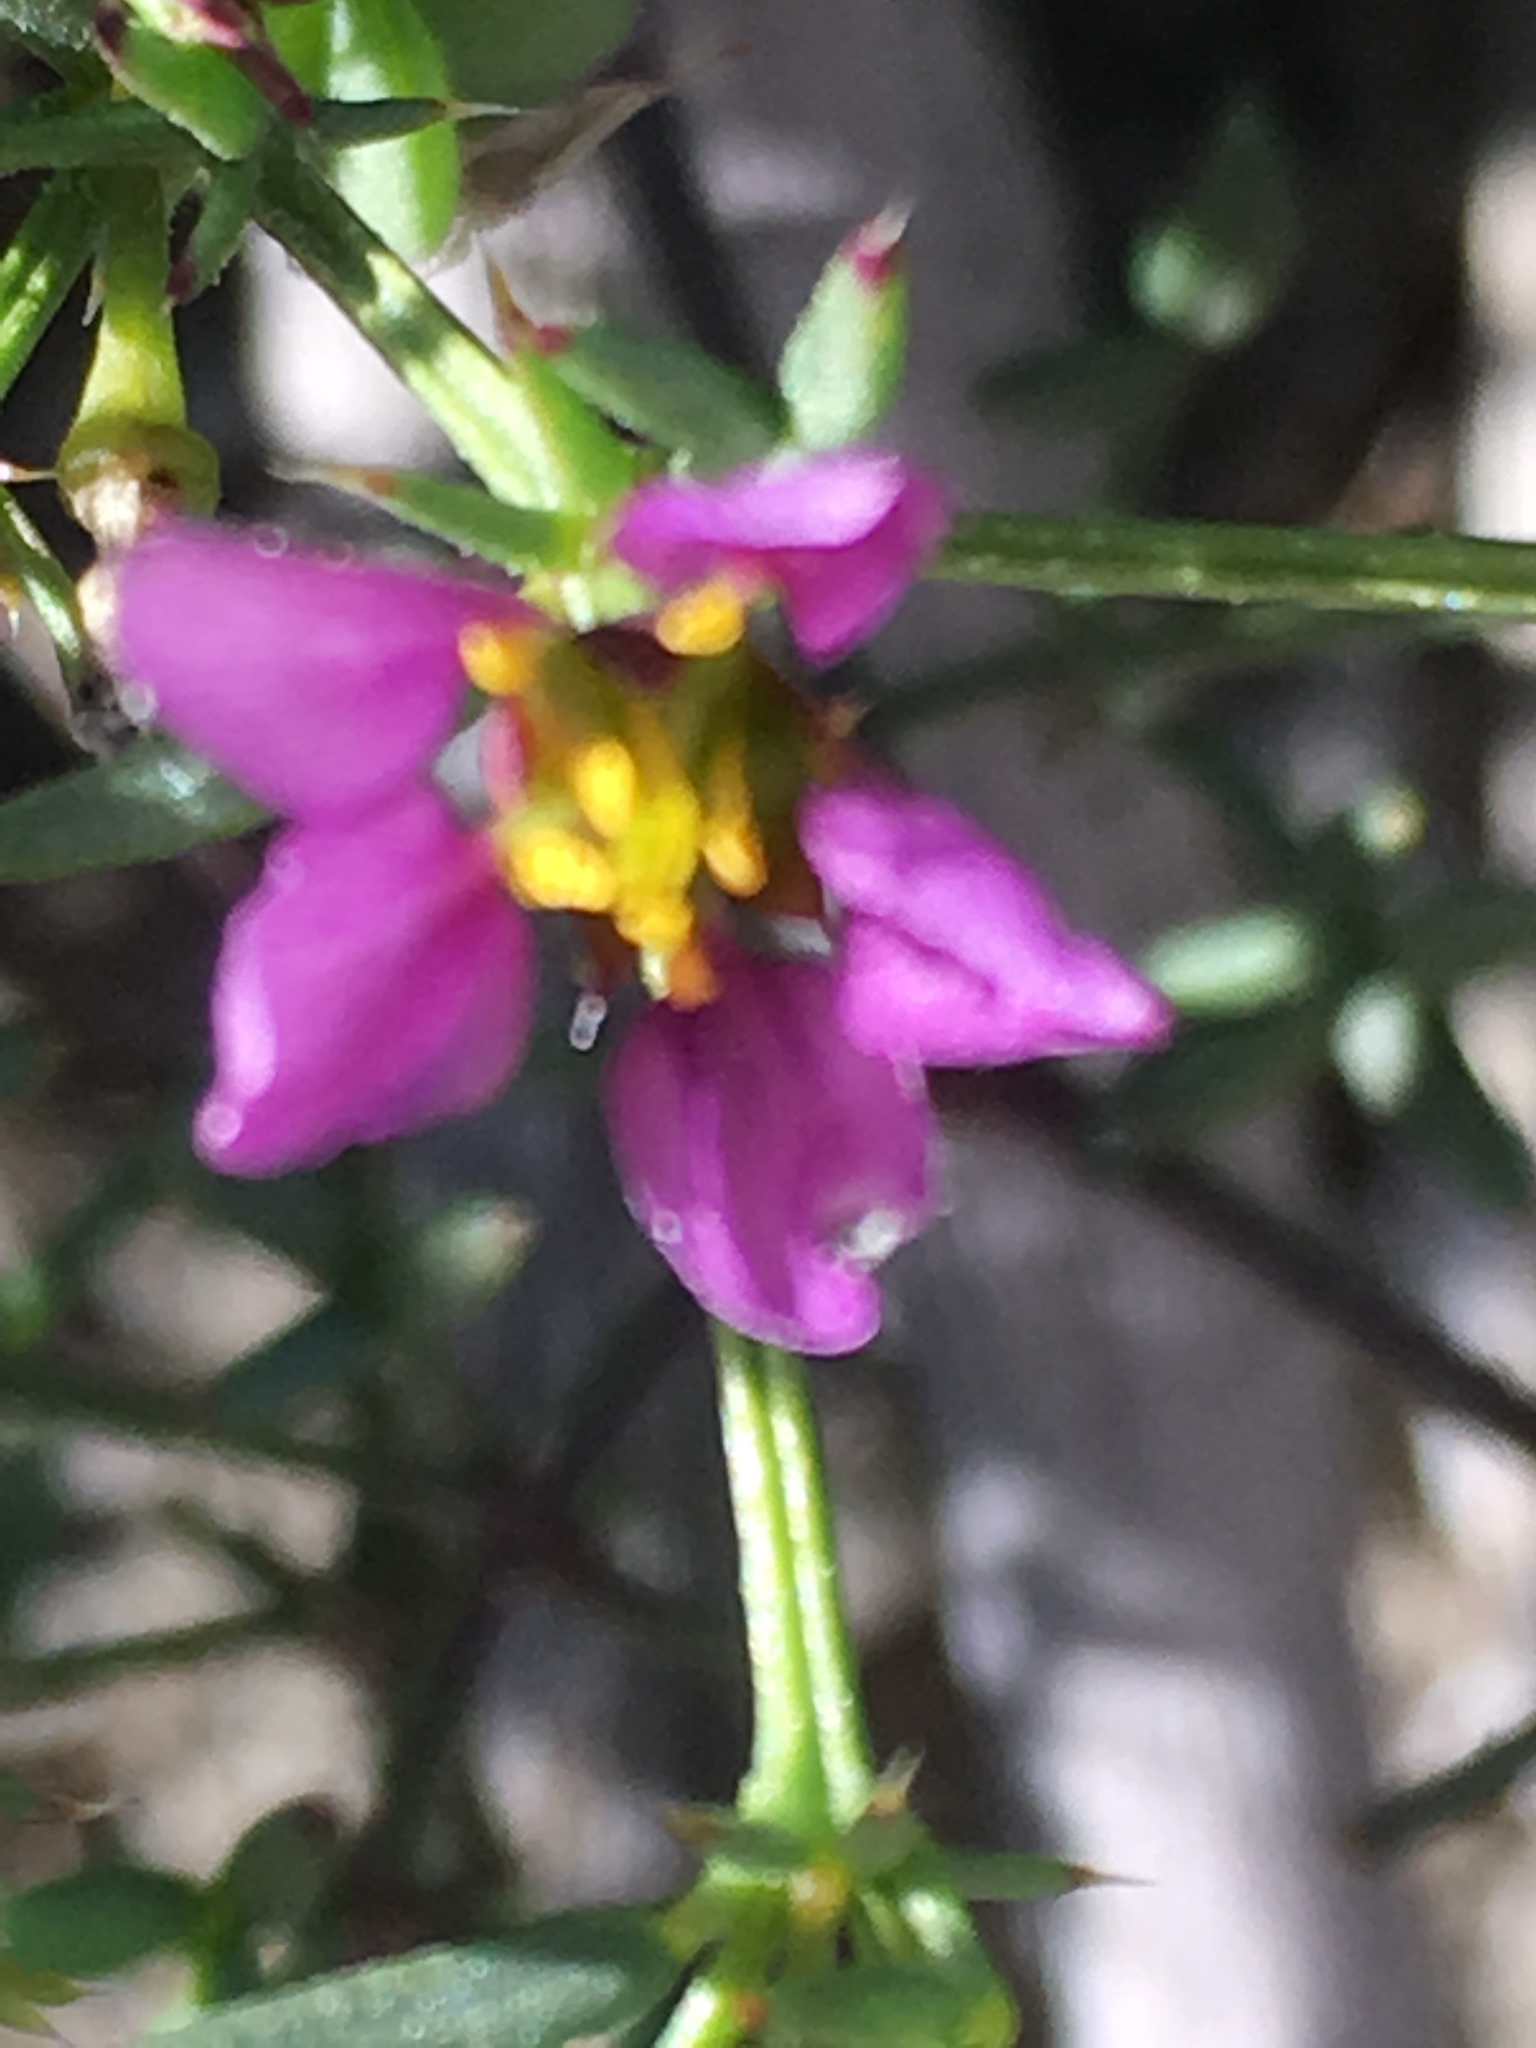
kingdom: Plantae
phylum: Tracheophyta
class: Magnoliopsida
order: Zygophyllales
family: Zygophyllaceae
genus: Fagonia
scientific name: Fagonia laevis
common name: California fagonbush
